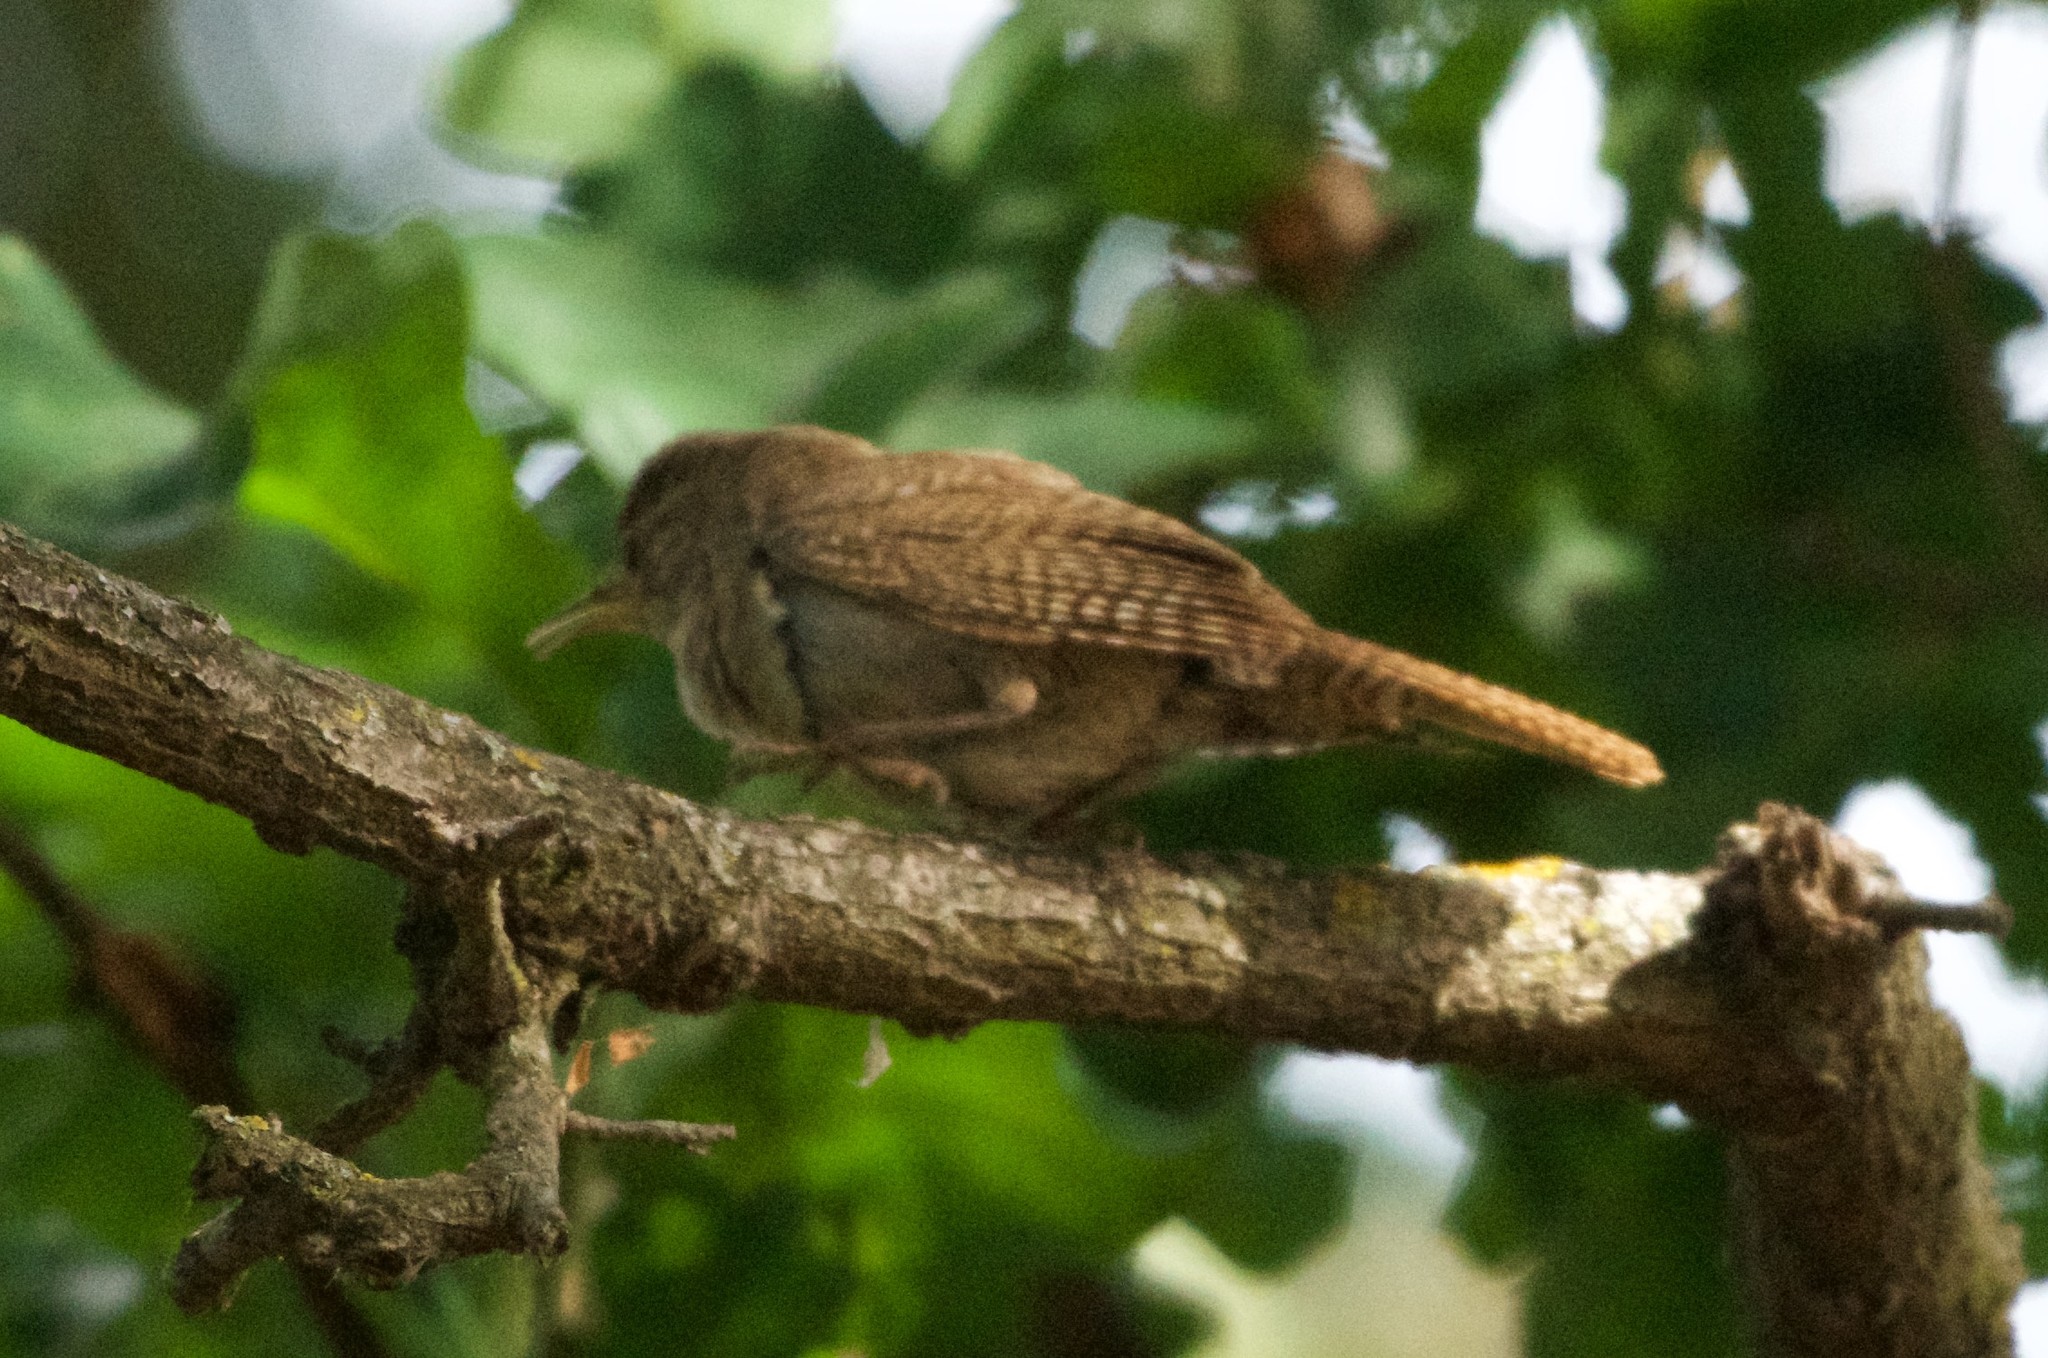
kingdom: Animalia
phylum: Chordata
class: Aves
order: Passeriformes
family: Troglodytidae
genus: Troglodytes
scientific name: Troglodytes aedon
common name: House wren
